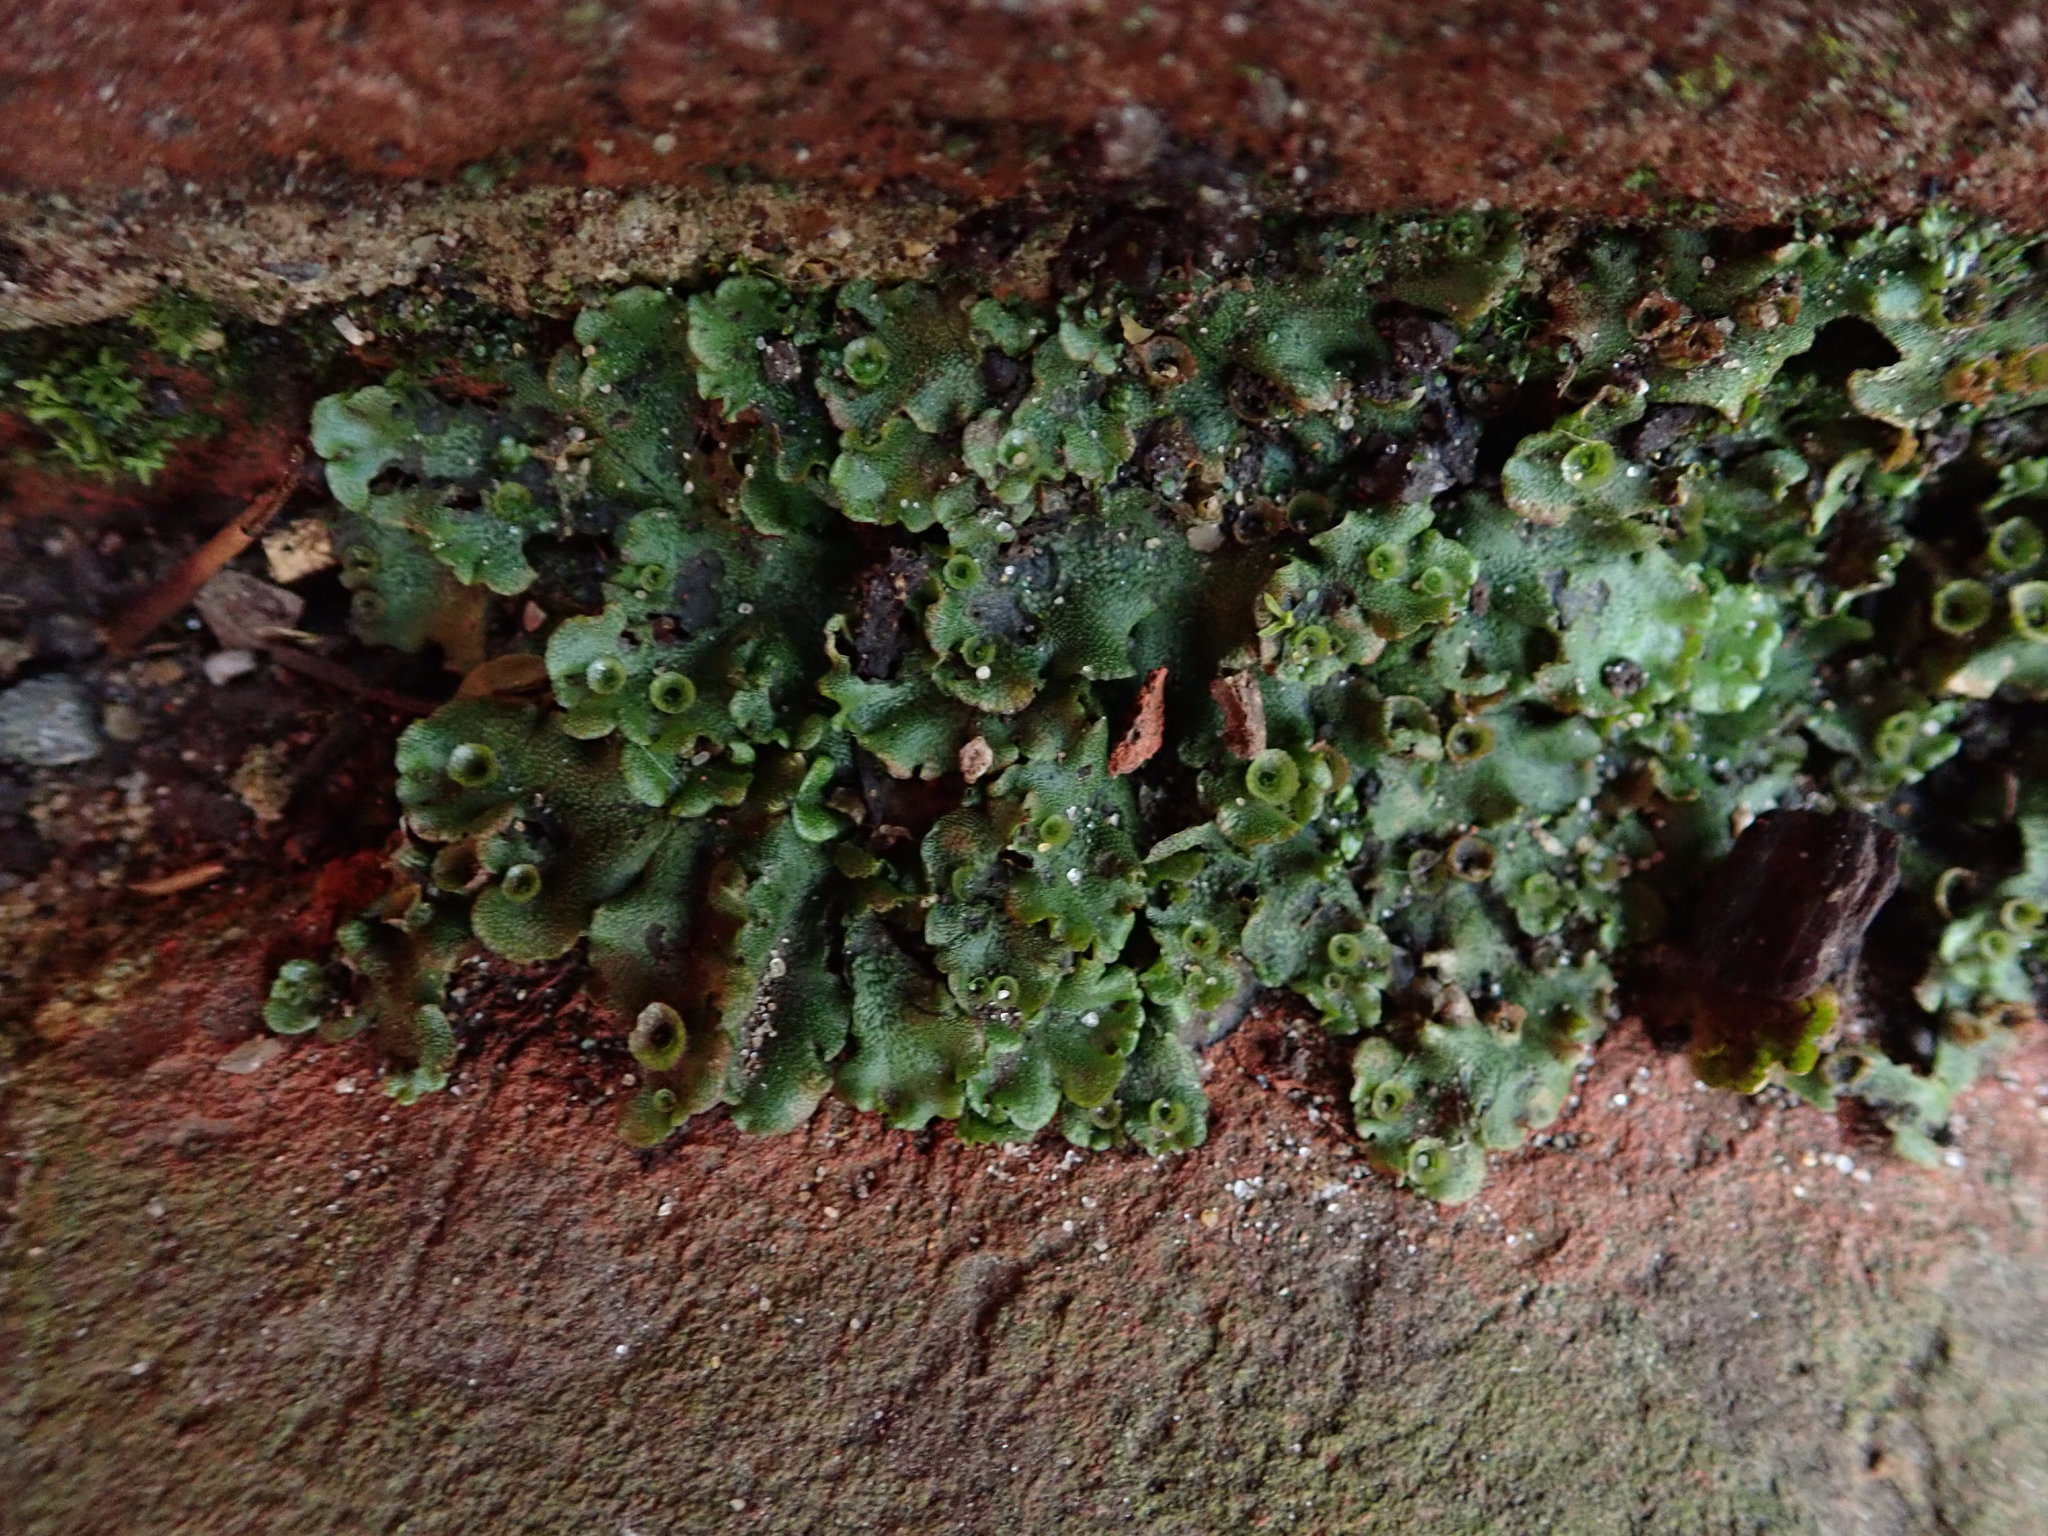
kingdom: Plantae
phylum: Marchantiophyta
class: Marchantiopsida
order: Marchantiales
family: Marchantiaceae
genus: Marchantia
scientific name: Marchantia polymorpha
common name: Common liverwort
